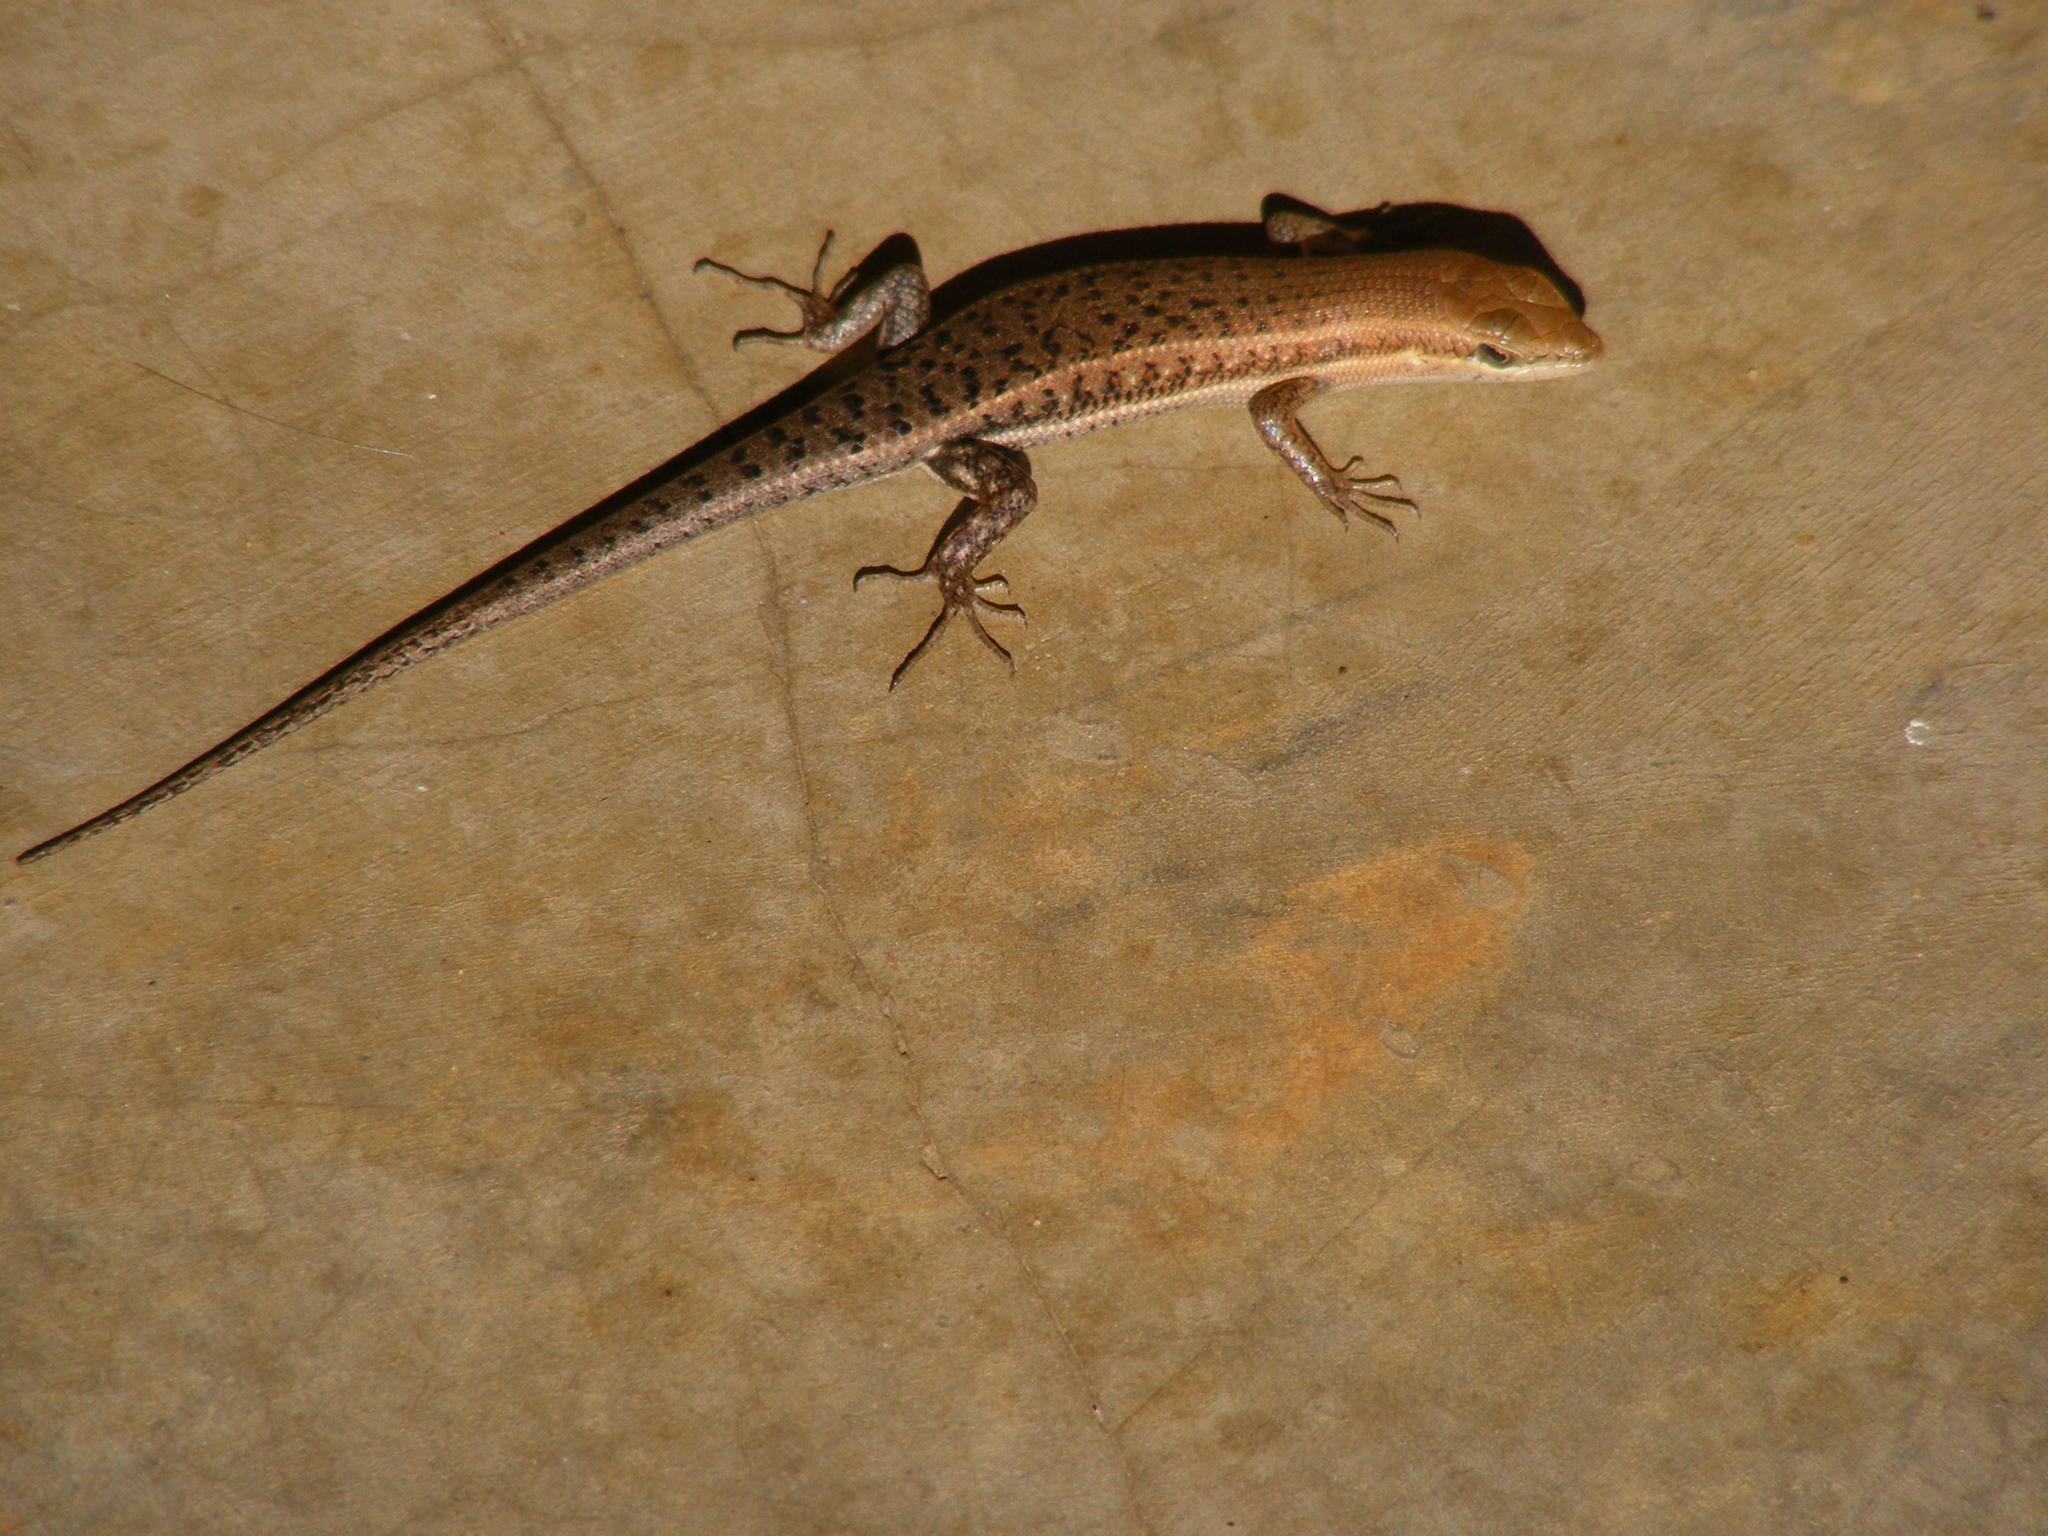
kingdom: Animalia
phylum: Chordata
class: Squamata
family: Scincidae
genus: Trachylepis
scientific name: Trachylepis varia
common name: Eastern variable skink
